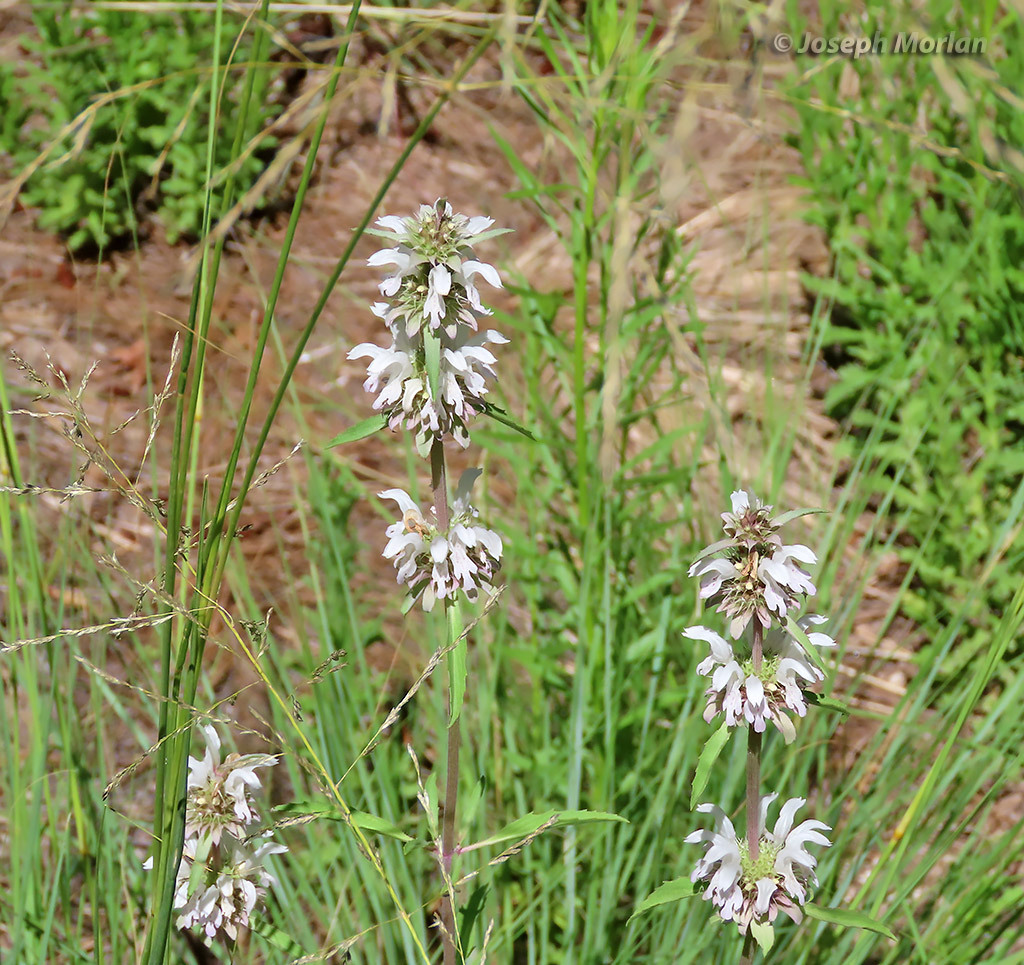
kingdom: Plantae
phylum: Tracheophyta
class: Magnoliopsida
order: Lamiales
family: Lamiaceae
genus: Monarda
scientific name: Monarda citriodora
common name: Lemon beebalm
